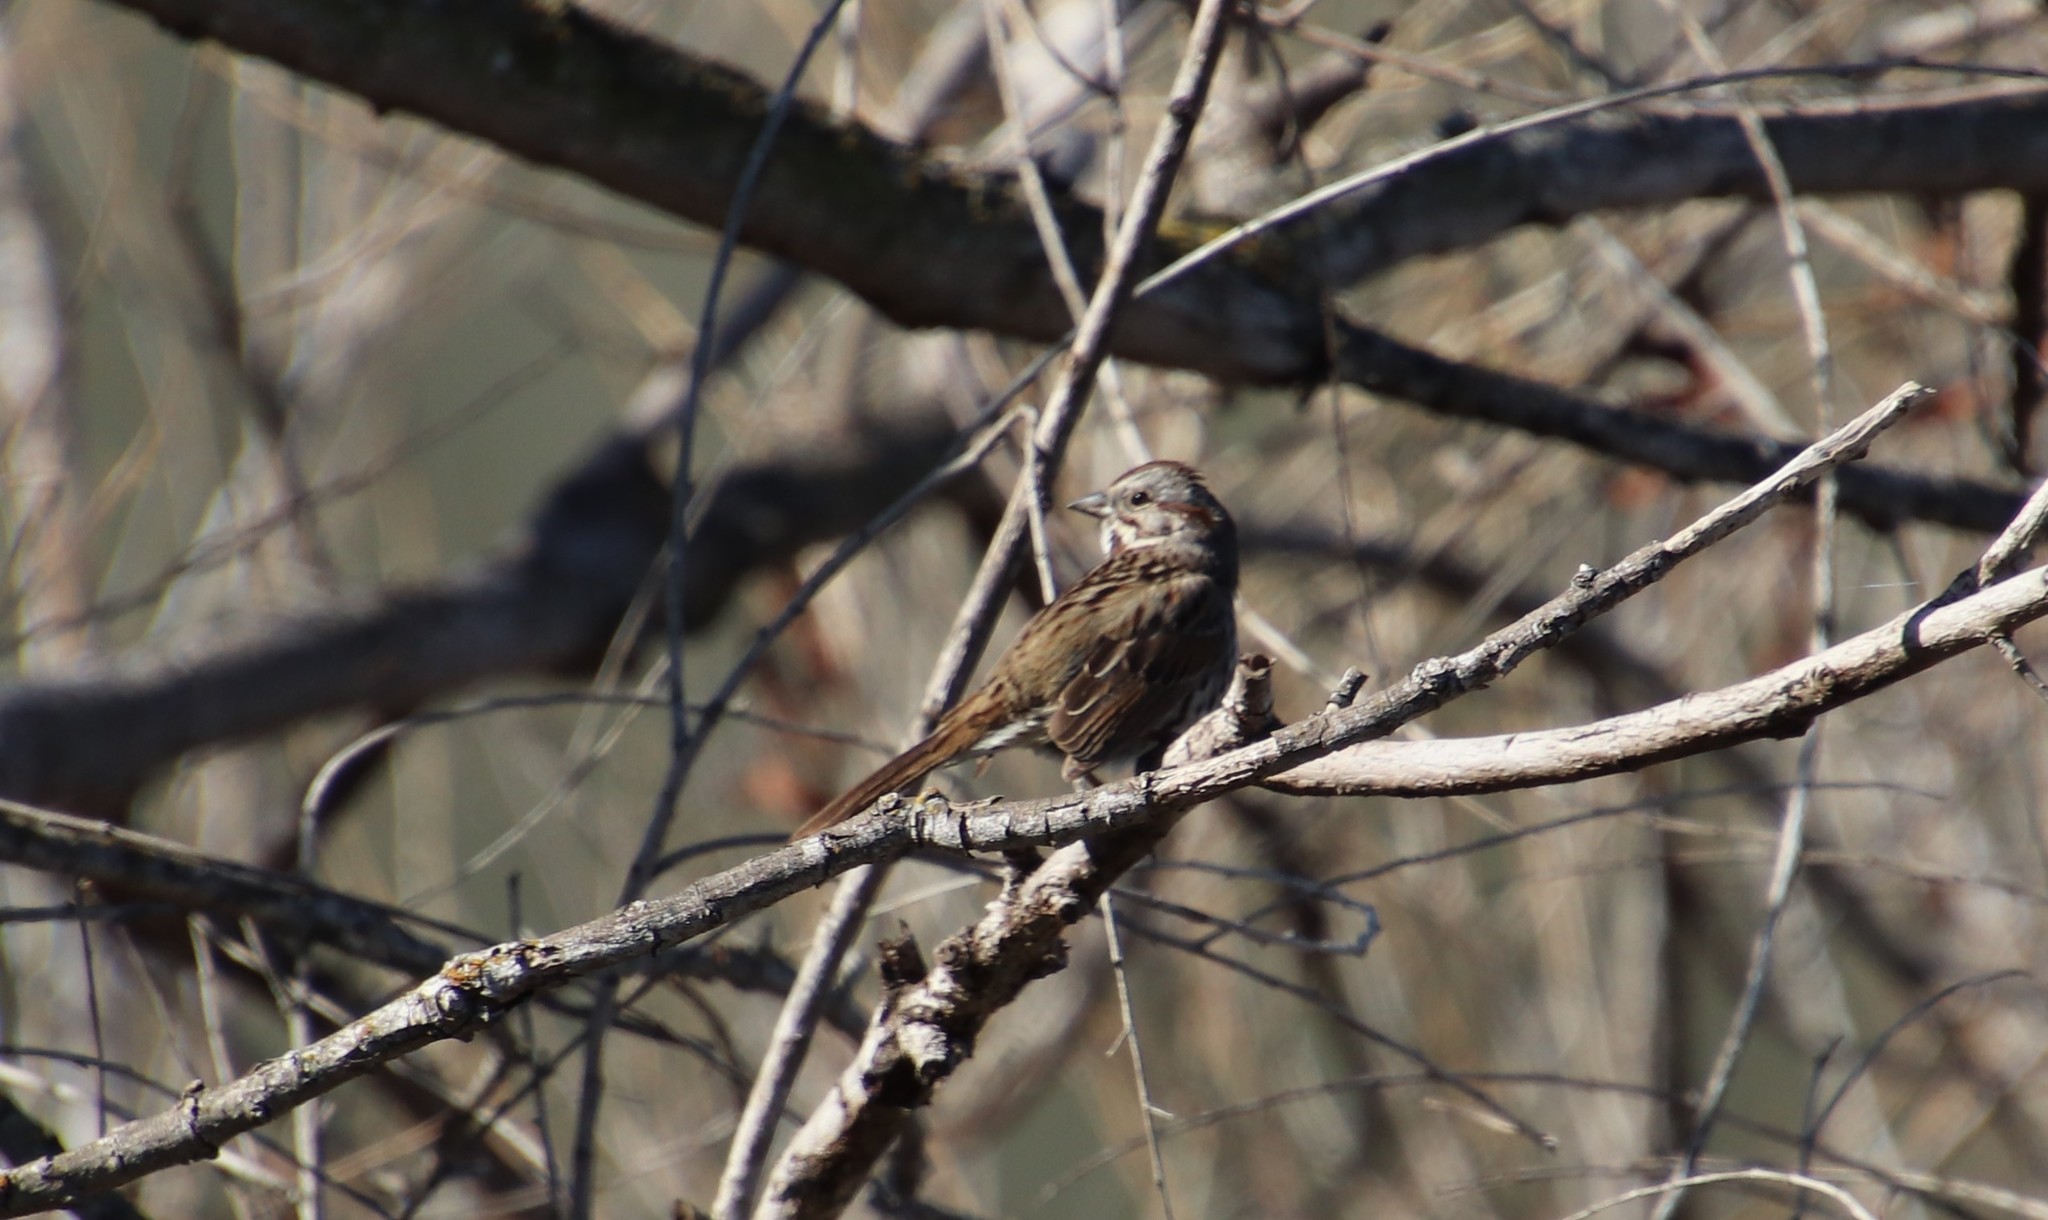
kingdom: Animalia
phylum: Chordata
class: Aves
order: Passeriformes
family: Passerellidae
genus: Melospiza
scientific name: Melospiza melodia
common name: Song sparrow
